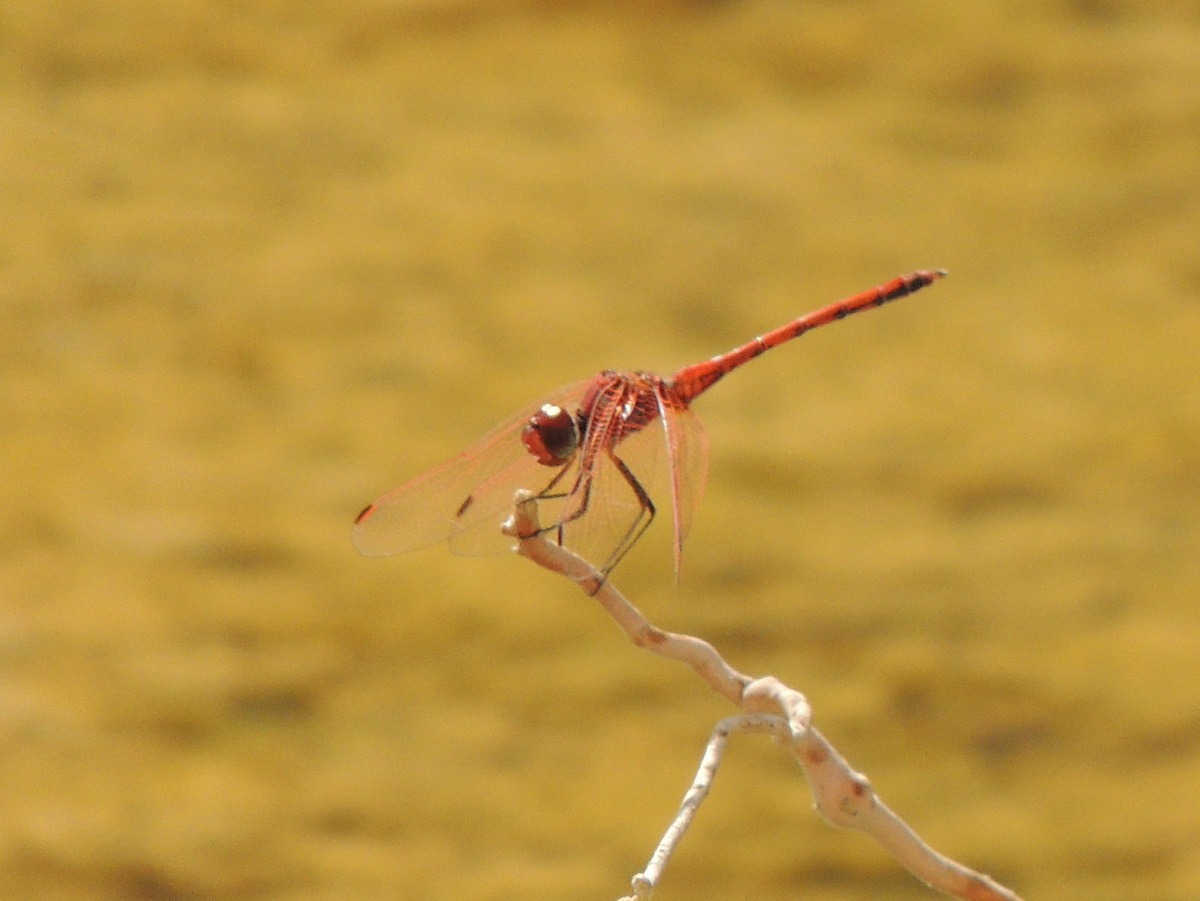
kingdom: Animalia
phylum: Arthropoda
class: Insecta
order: Odonata
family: Libellulidae
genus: Trithemis
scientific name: Trithemis arteriosa
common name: Red-veined dropwing
